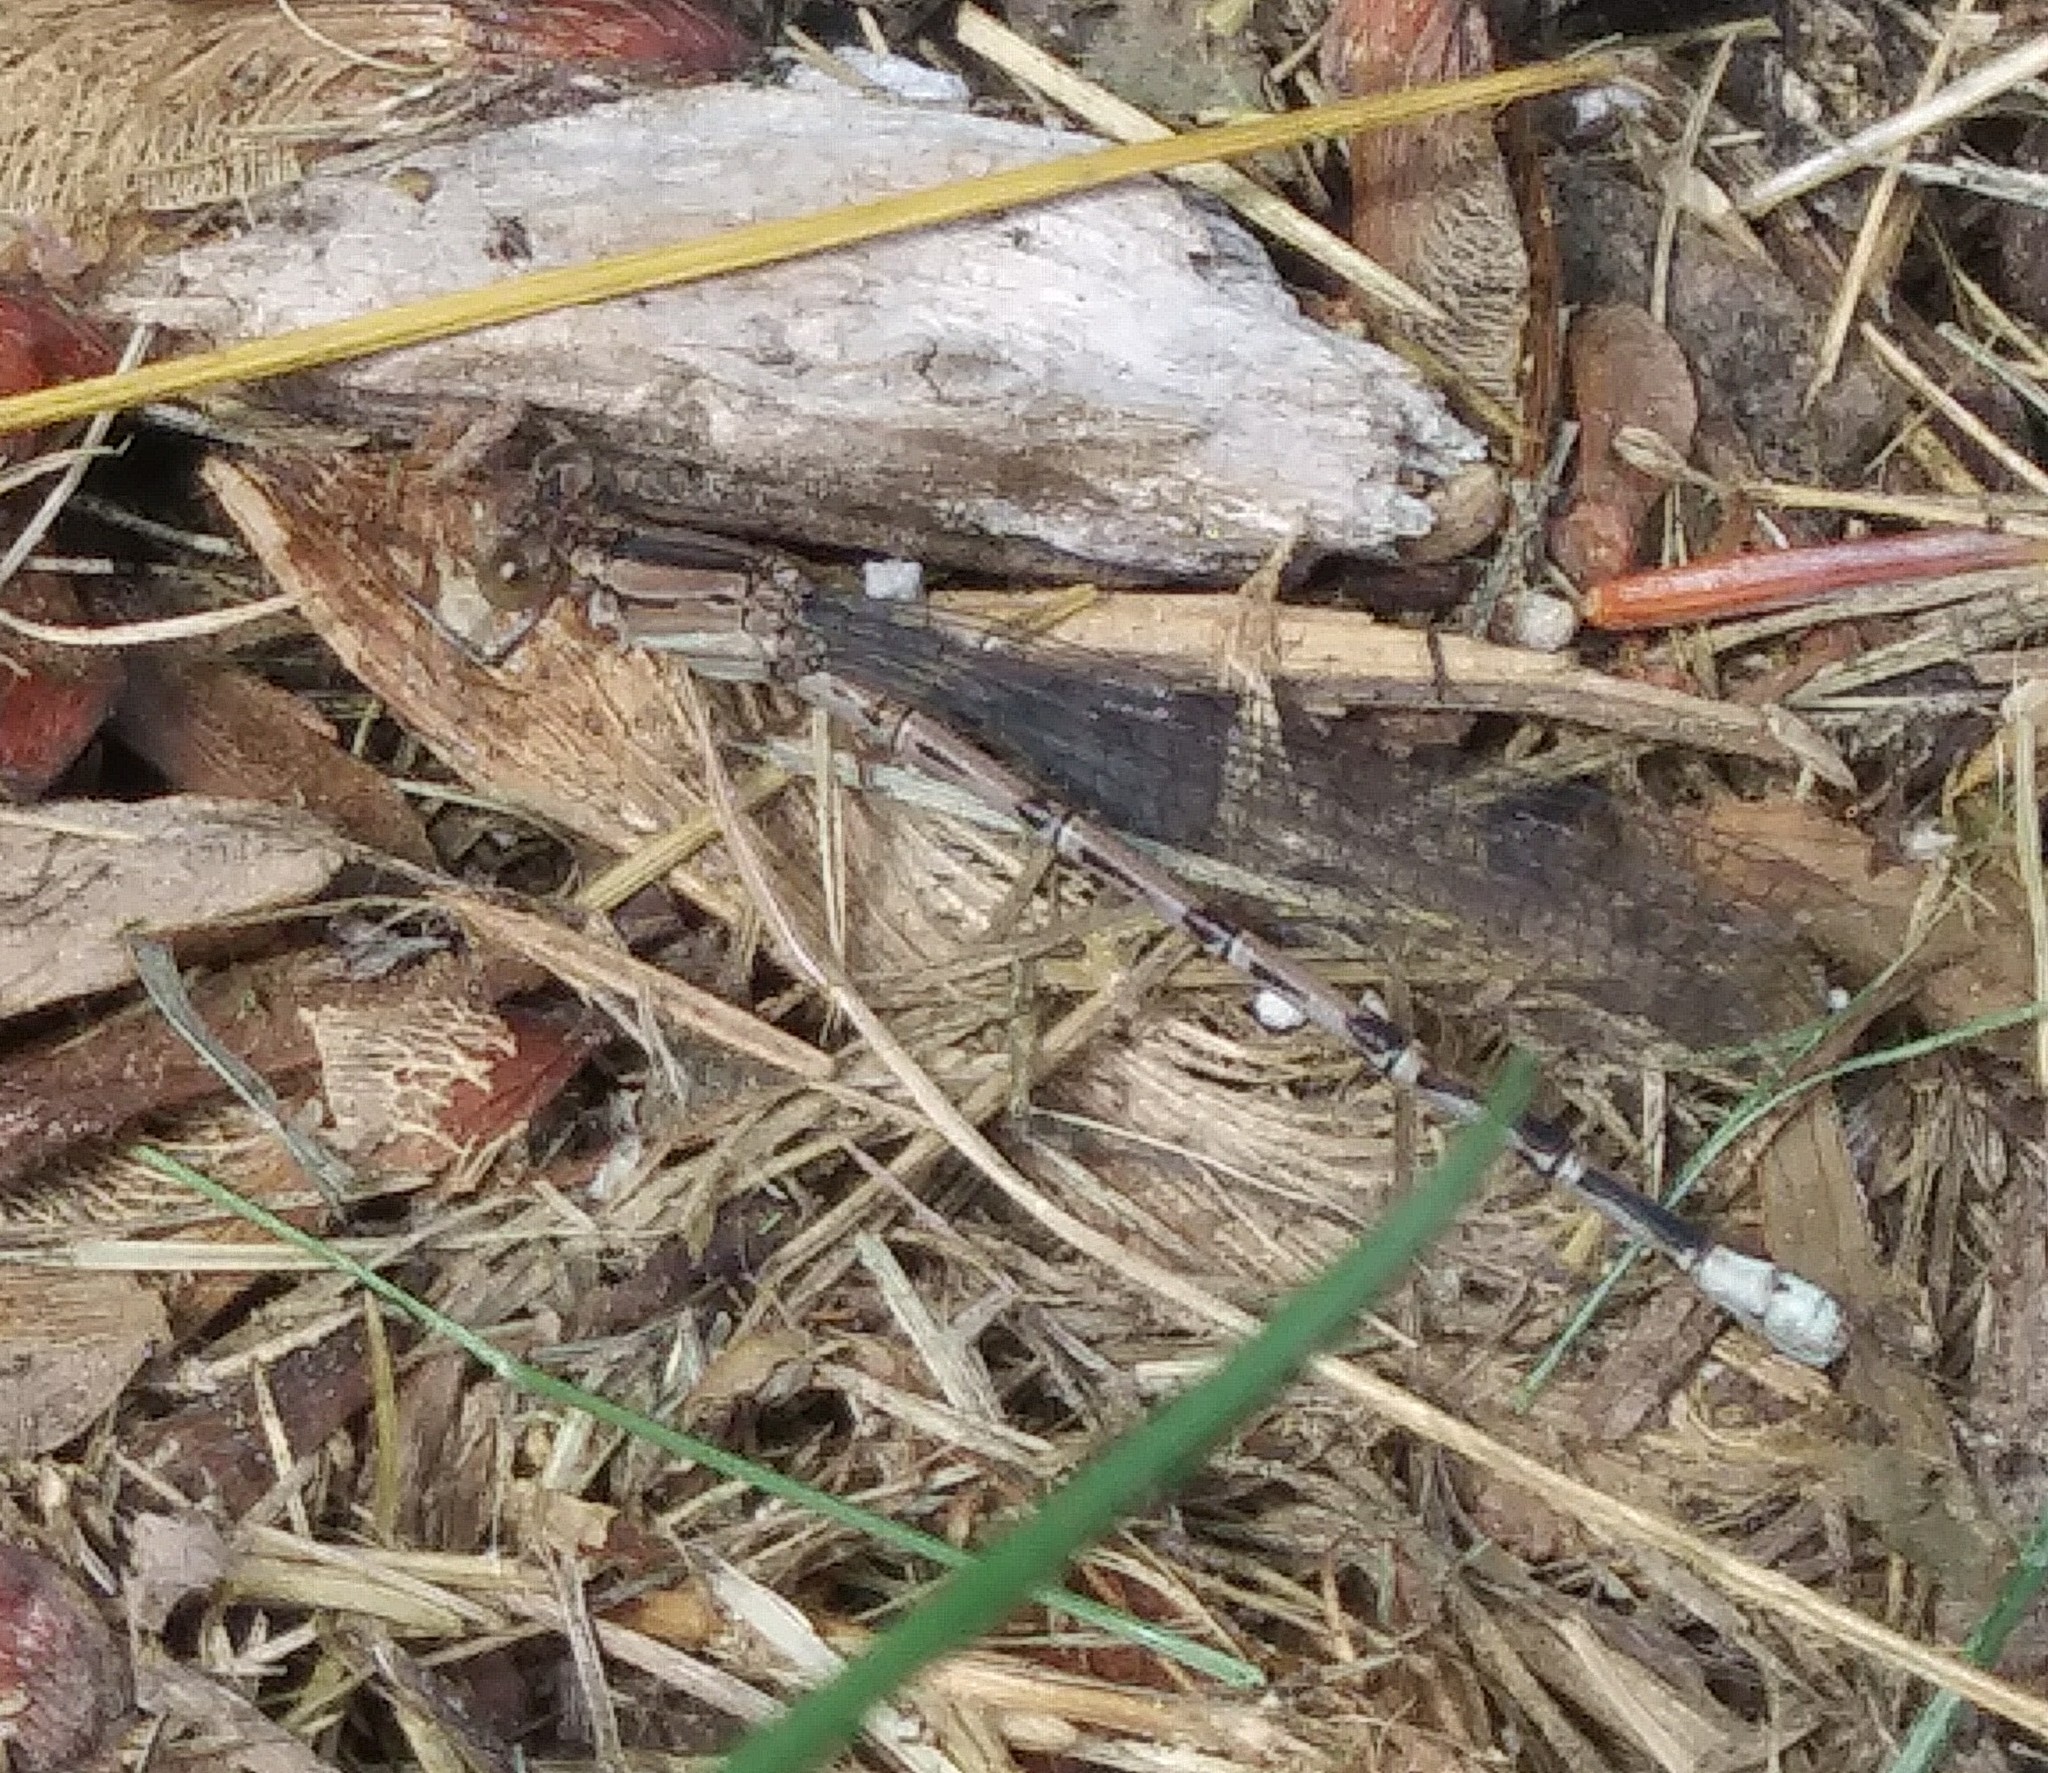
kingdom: Animalia
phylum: Arthropoda
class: Insecta
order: Odonata
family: Coenagrionidae
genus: Argia
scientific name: Argia funebris
